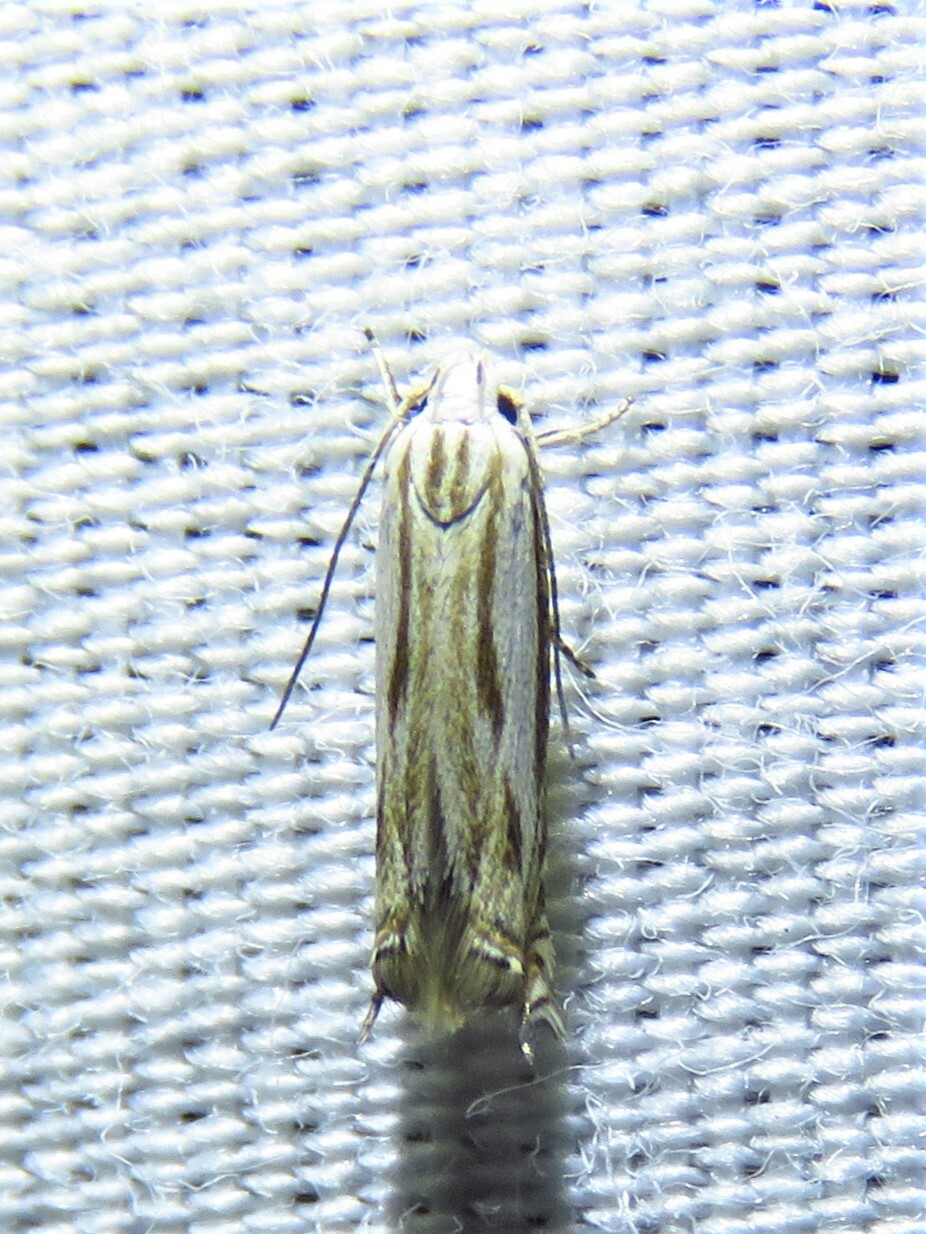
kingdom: Animalia
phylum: Arthropoda
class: Insecta
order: Lepidoptera
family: Gelechiidae
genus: Polyhymno
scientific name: Polyhymno acaciella
